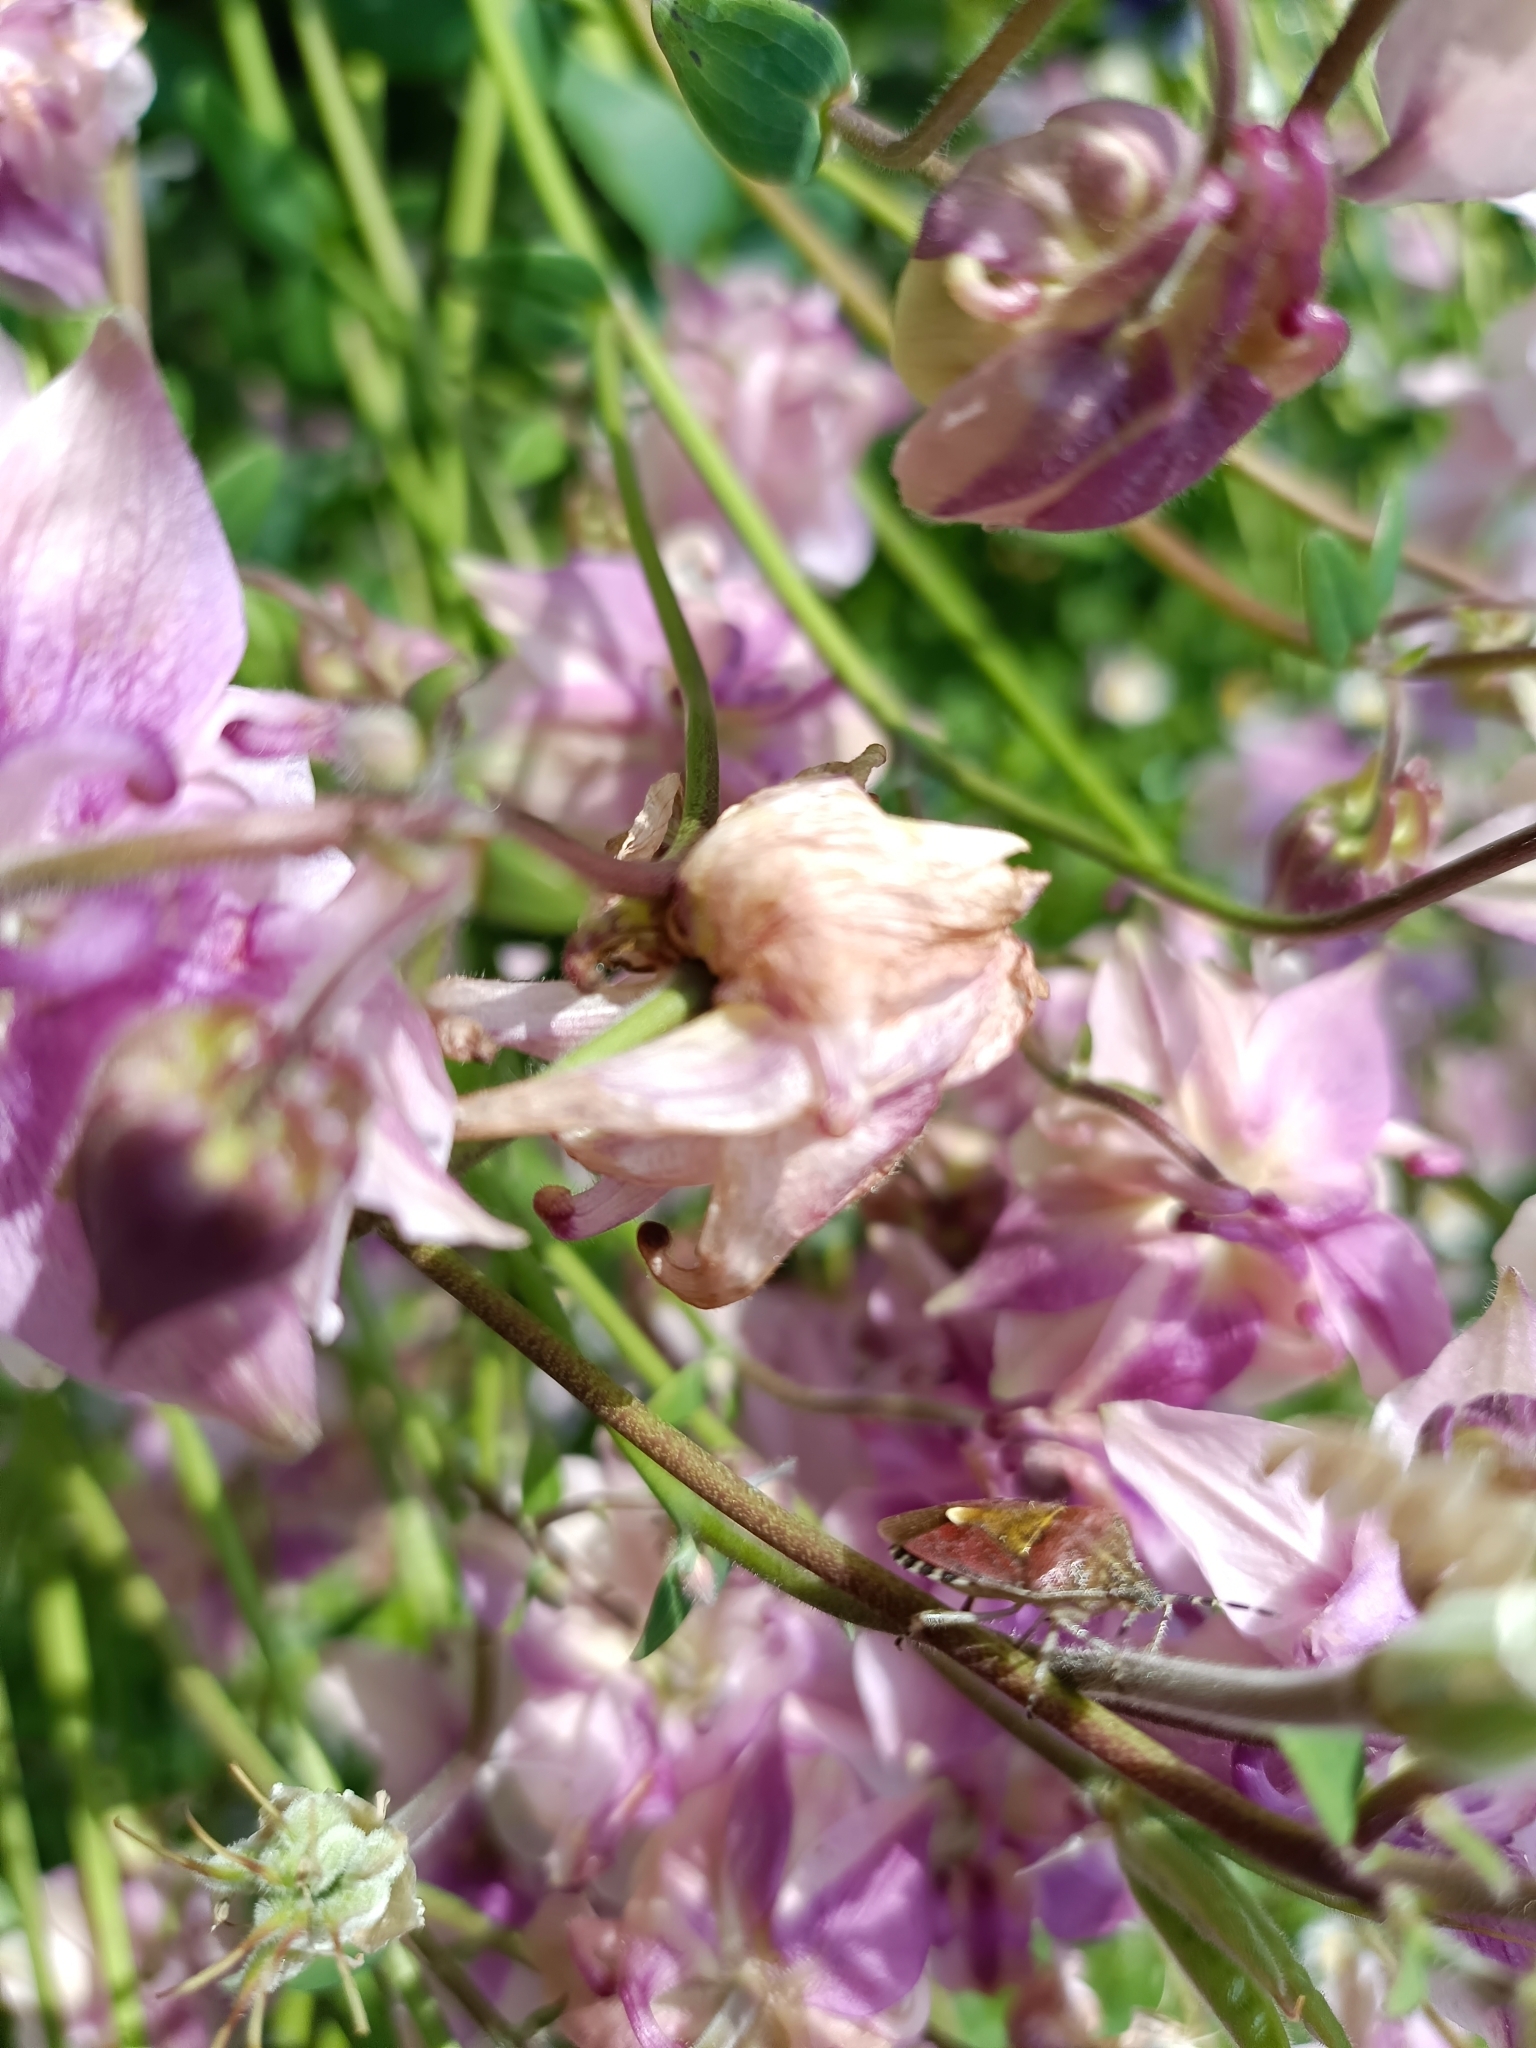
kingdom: Animalia
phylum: Arthropoda
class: Insecta
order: Hemiptera
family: Pentatomidae
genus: Dolycoris
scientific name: Dolycoris baccarum
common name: Sloe bug
